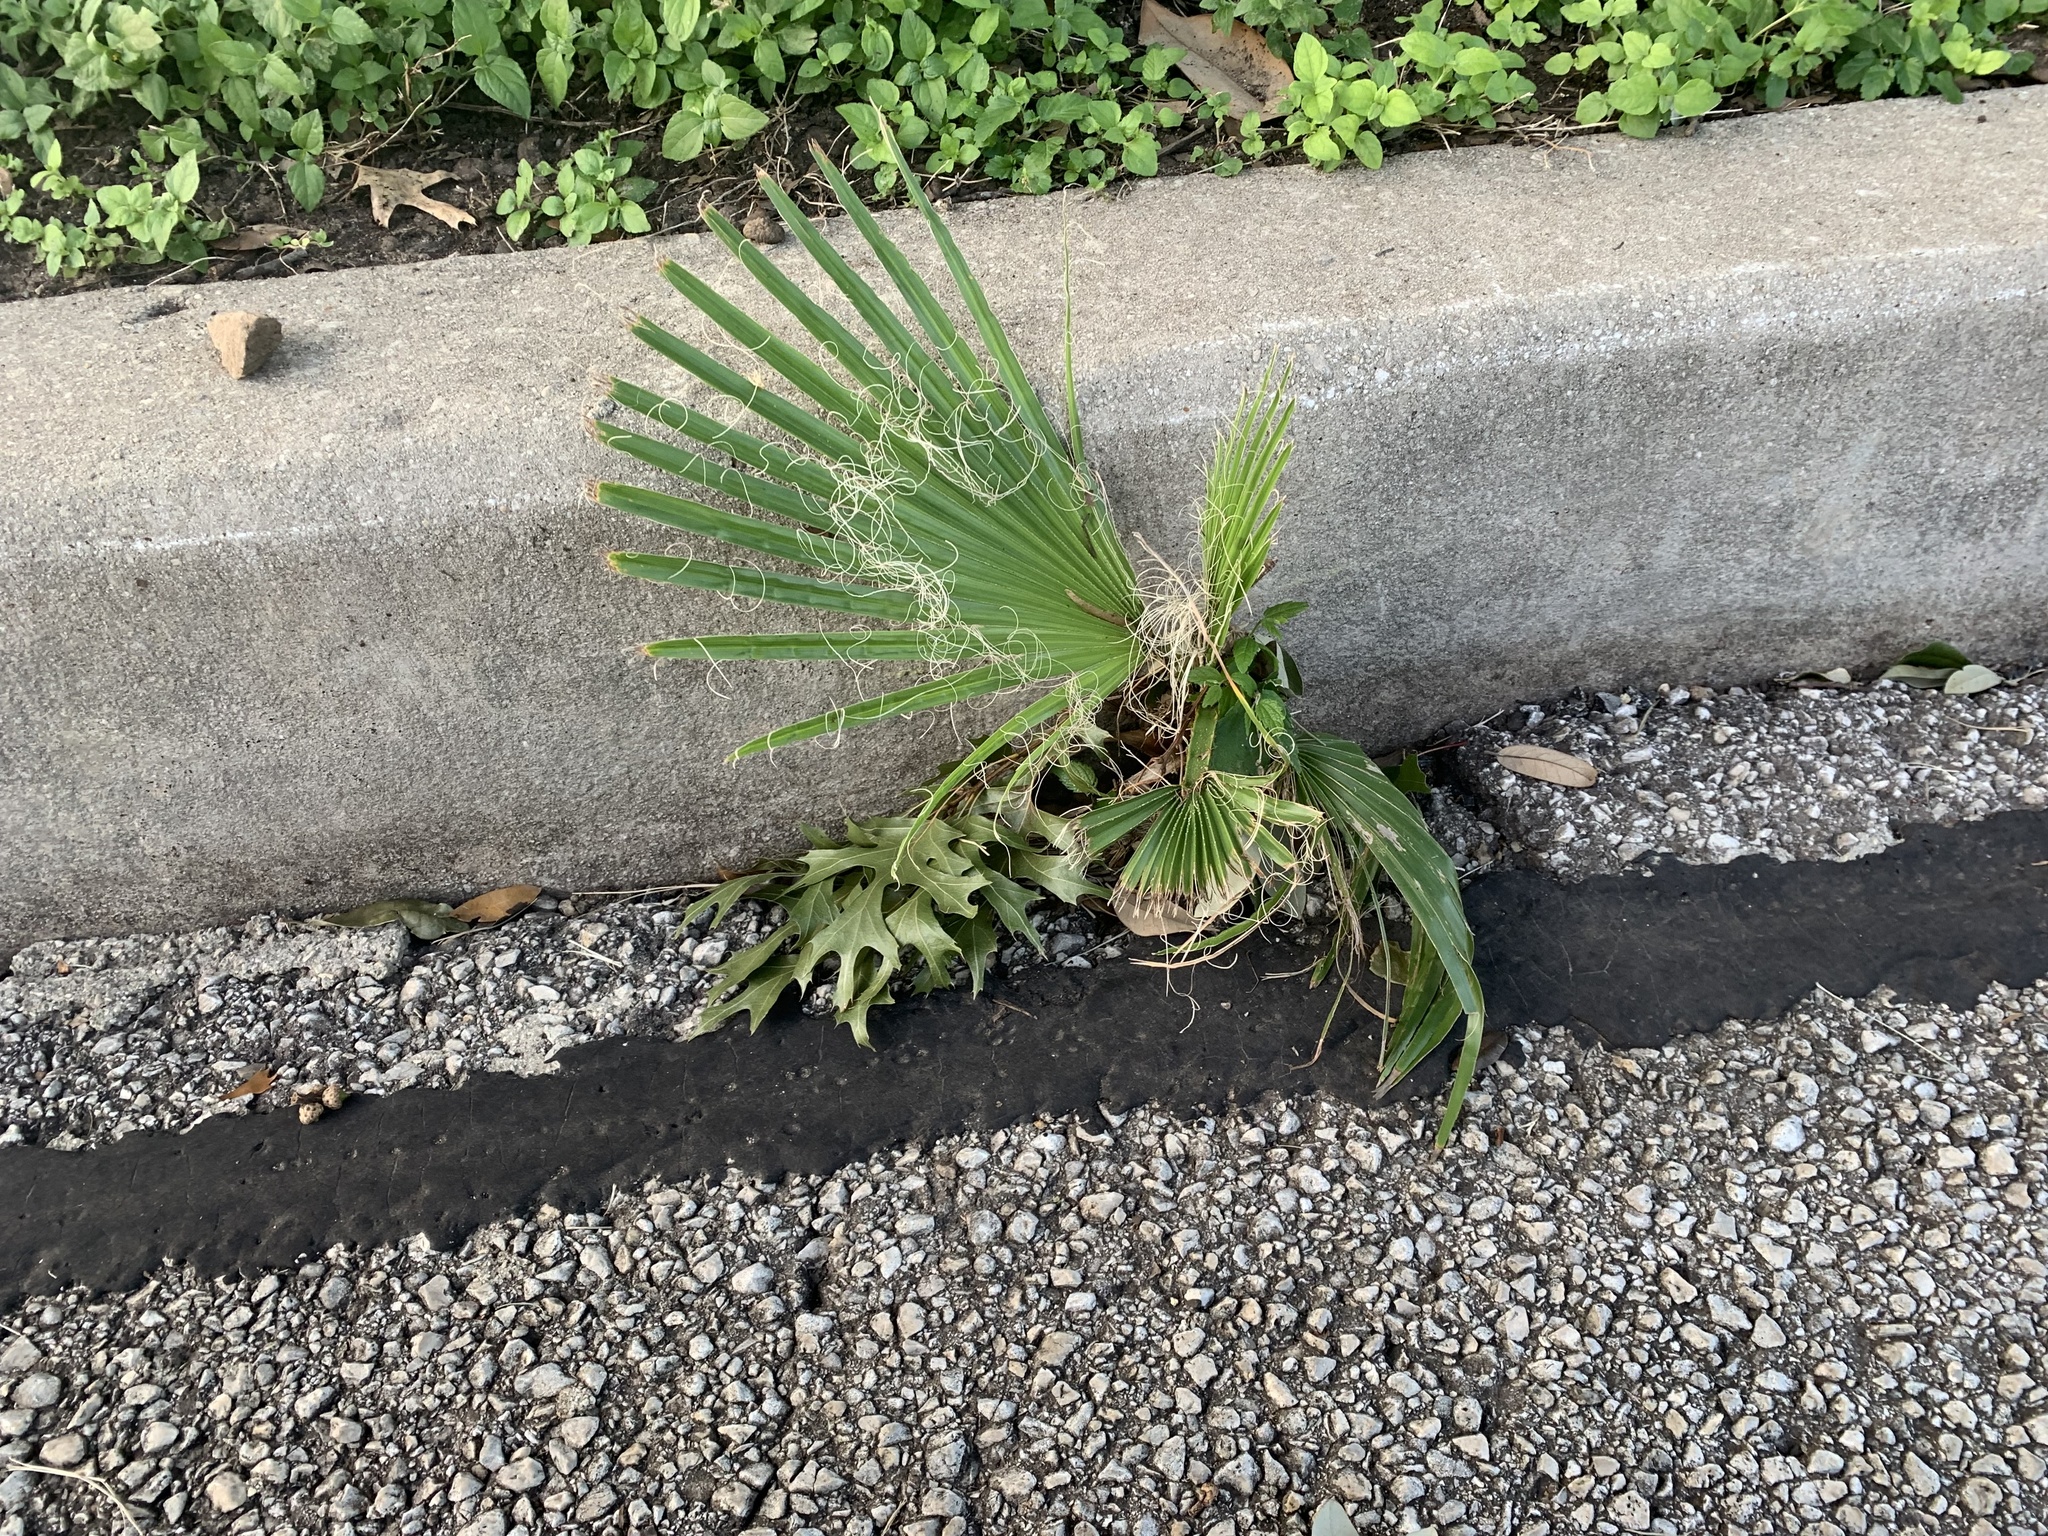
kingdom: Plantae
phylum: Tracheophyta
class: Liliopsida
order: Arecales
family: Arecaceae
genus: Washingtonia
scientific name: Washingtonia robusta
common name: Mexican fan palm
